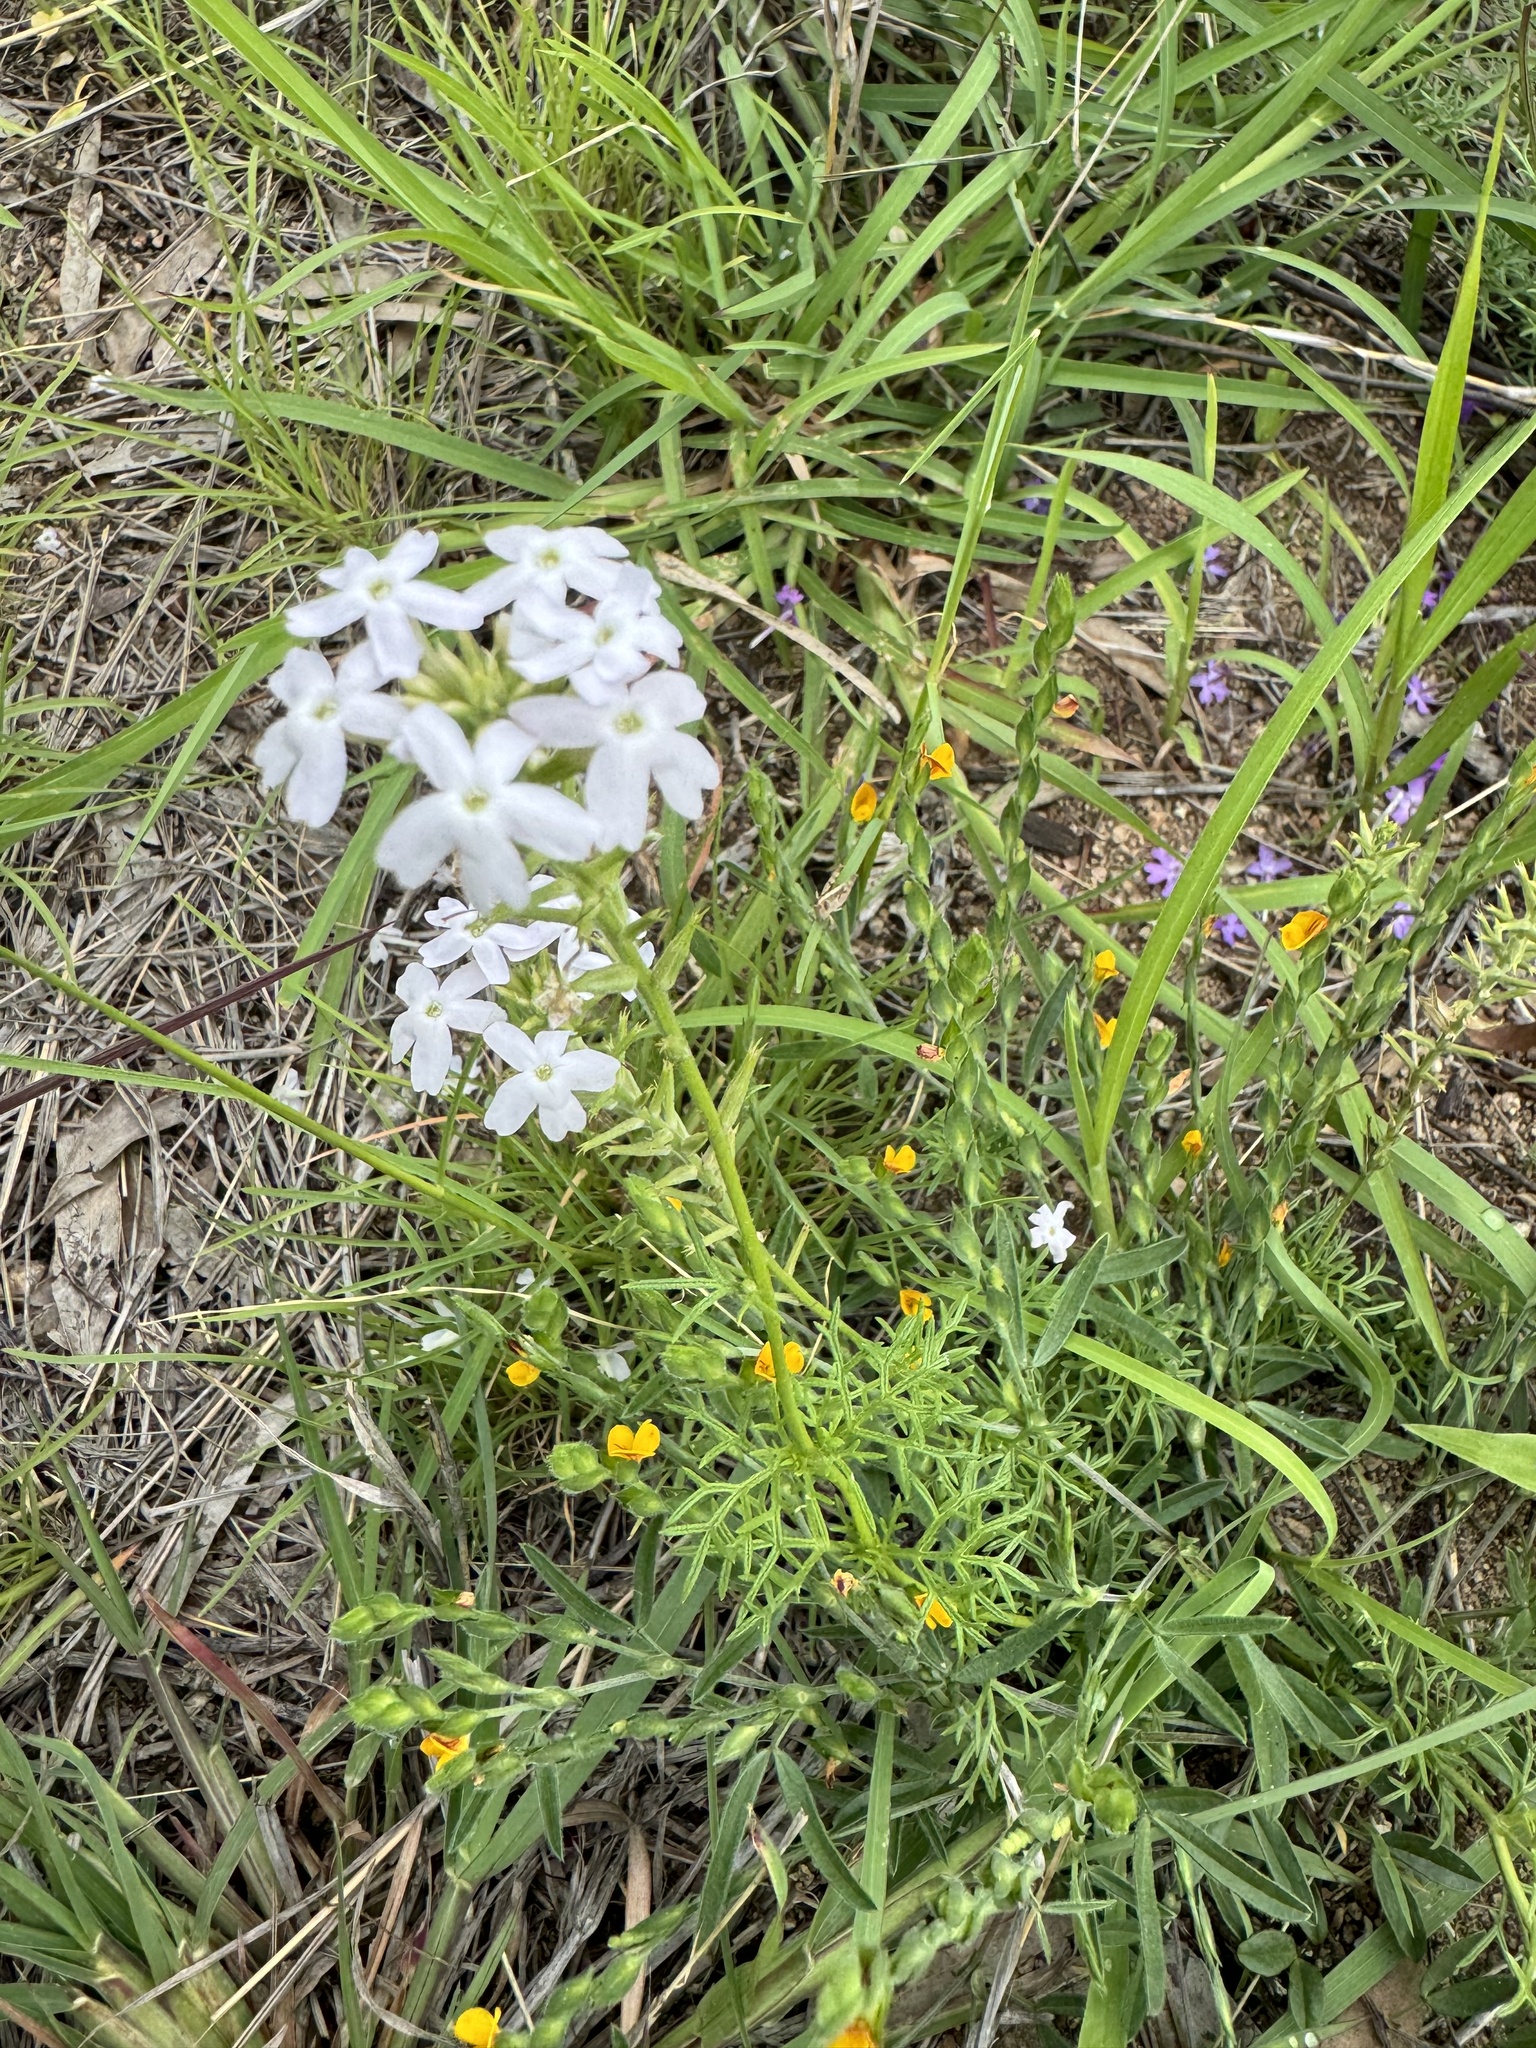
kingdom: Plantae
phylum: Tracheophyta
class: Magnoliopsida
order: Lamiales
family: Verbenaceae
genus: Verbena
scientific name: Verbena aristigera
